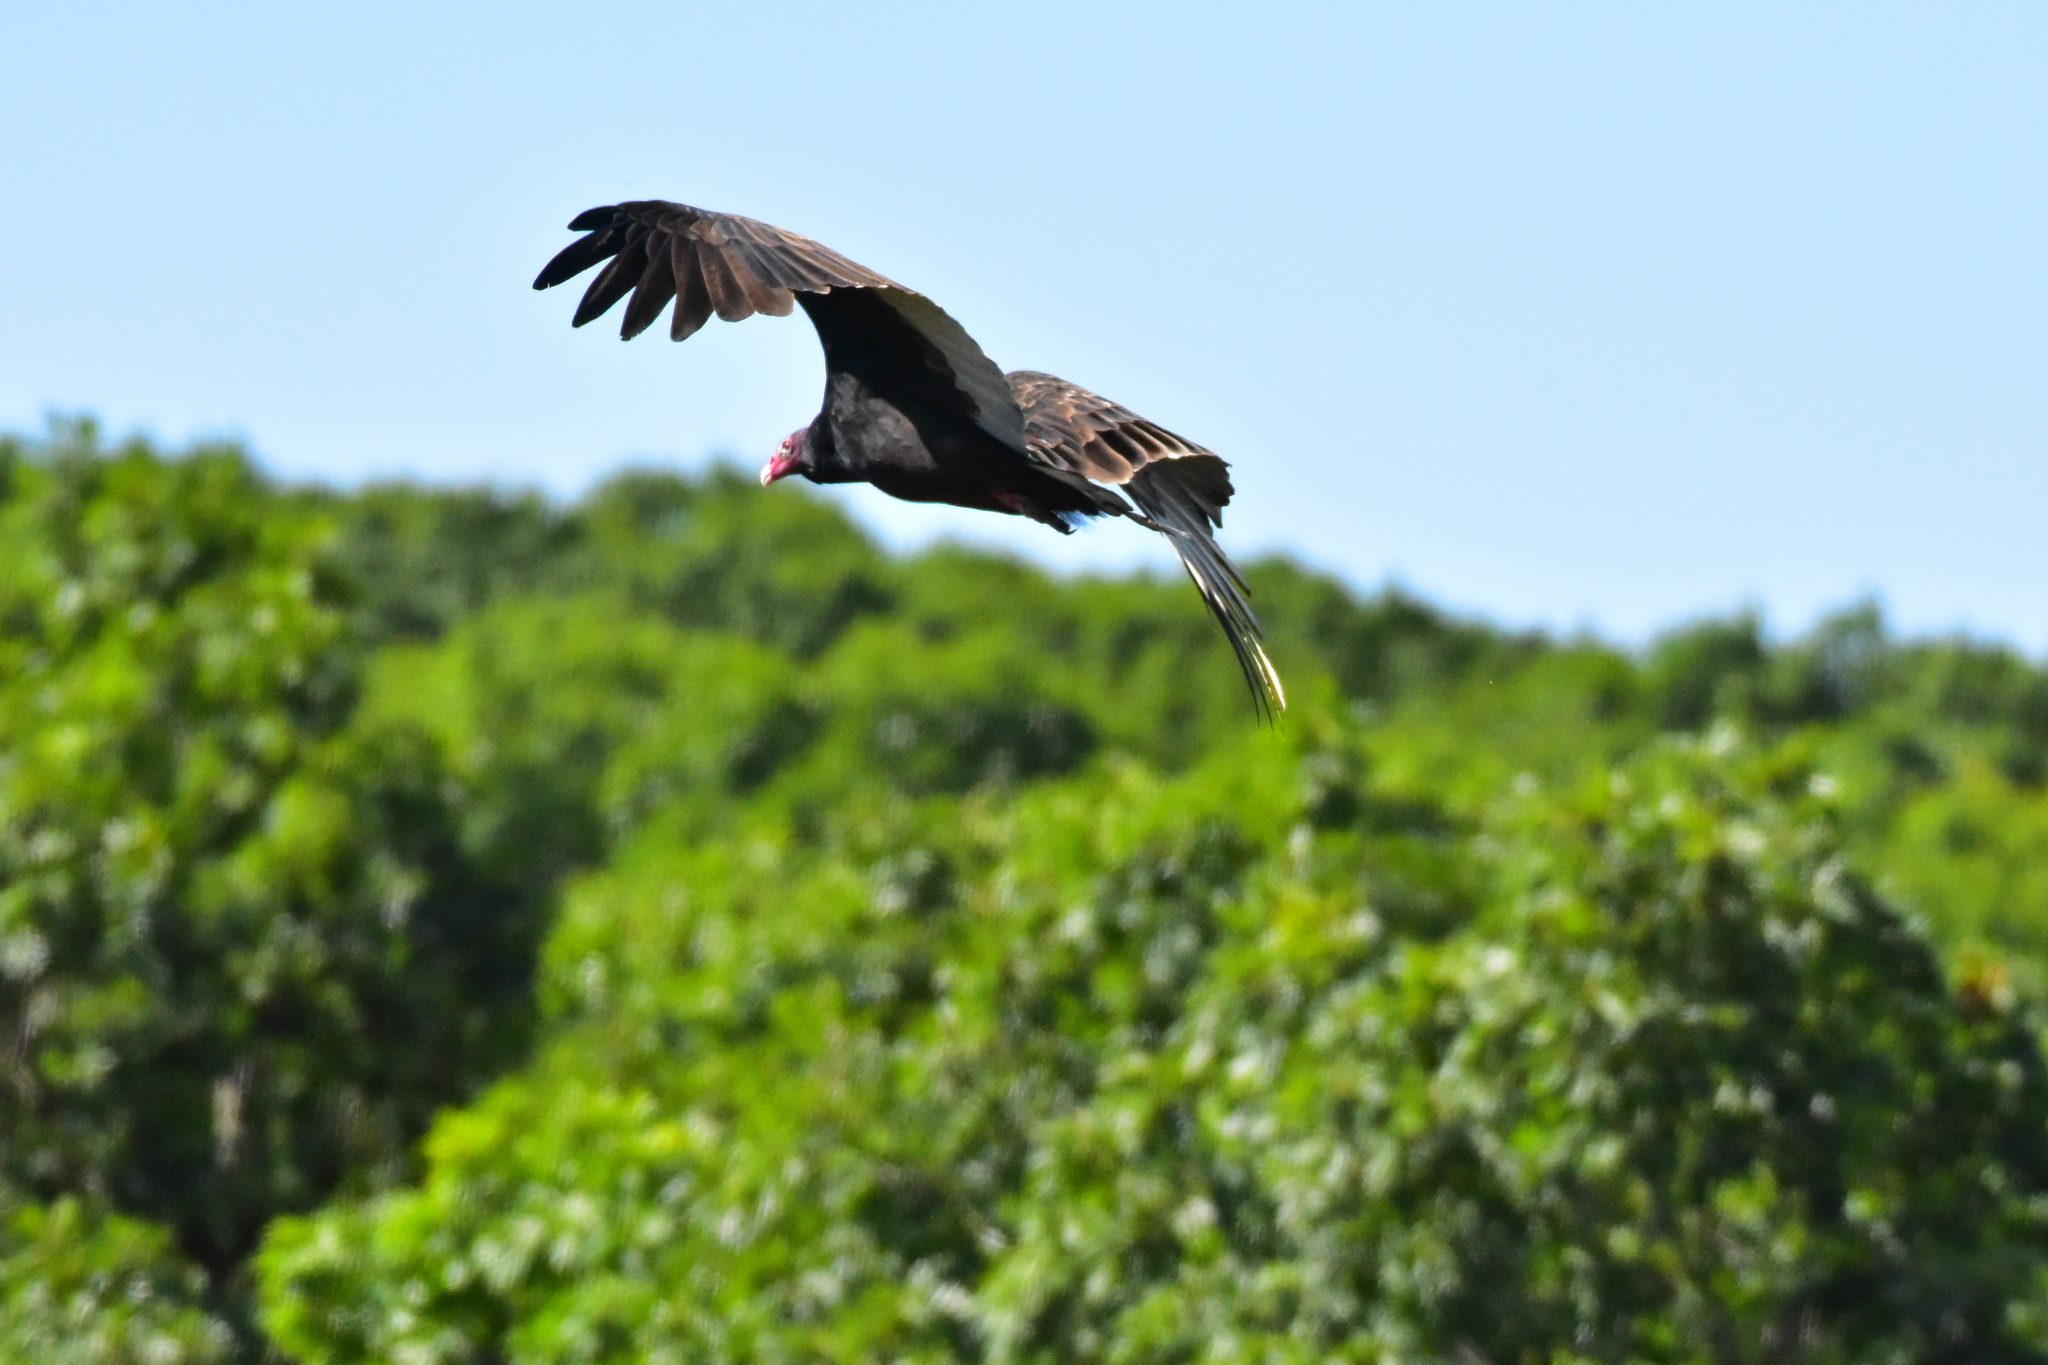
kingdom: Animalia
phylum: Chordata
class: Aves
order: Accipitriformes
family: Cathartidae
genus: Cathartes
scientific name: Cathartes aura
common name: Turkey vulture
